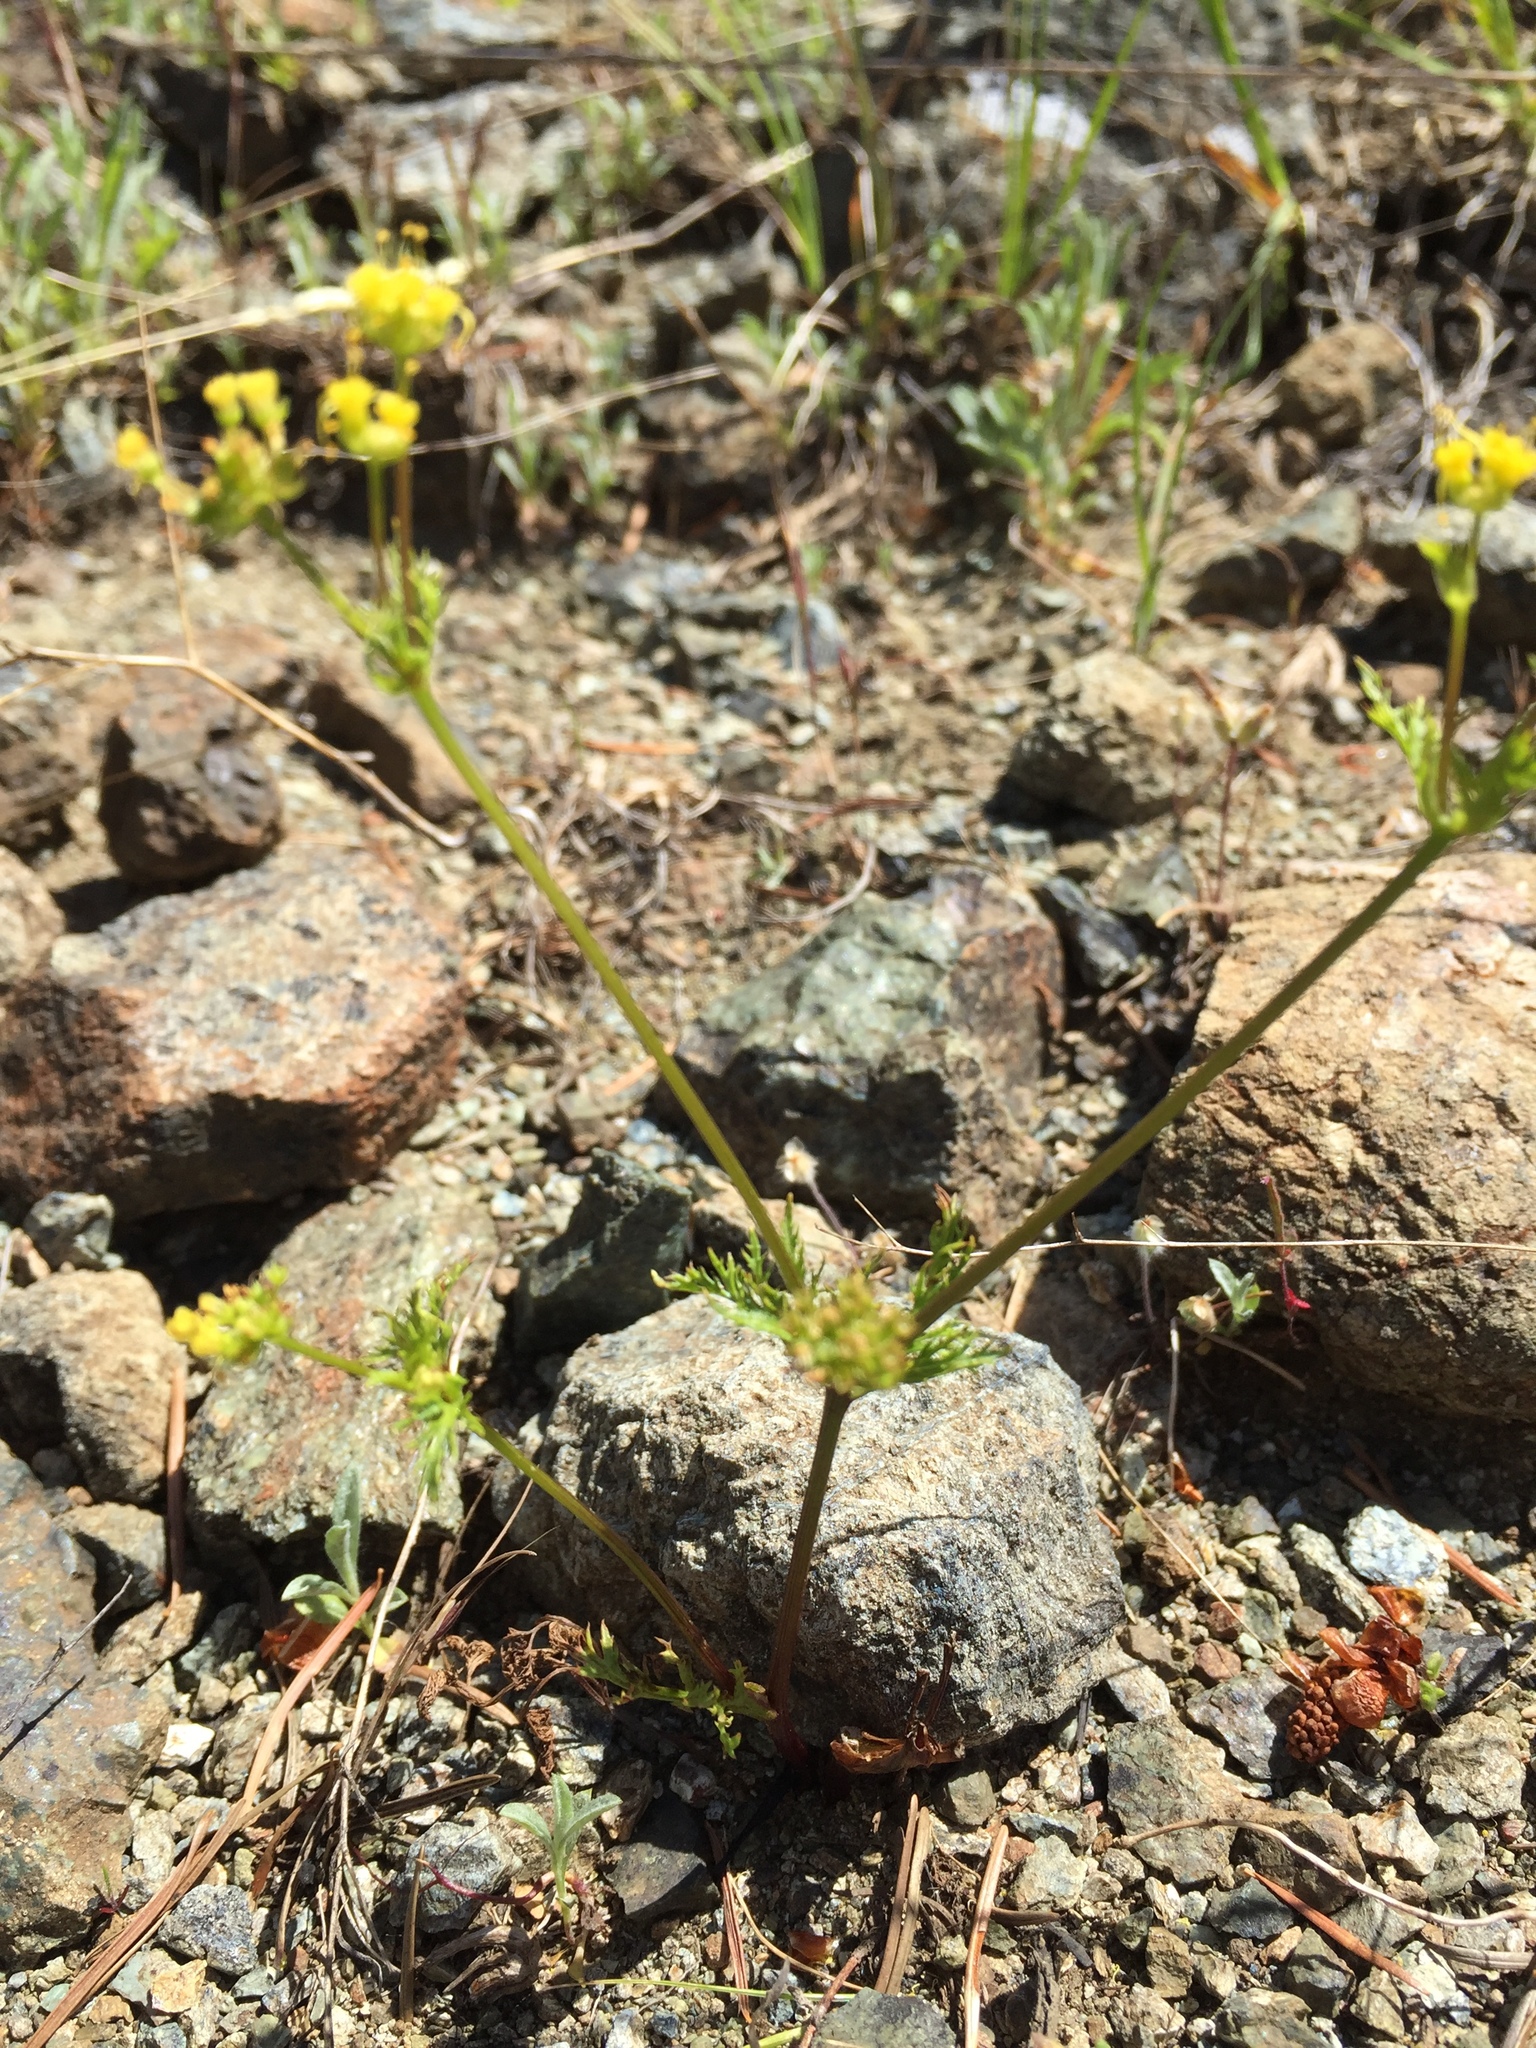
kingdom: Plantae
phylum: Tracheophyta
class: Magnoliopsida
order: Apiales
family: Apiaceae
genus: Sanicula
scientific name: Sanicula tuberosa
